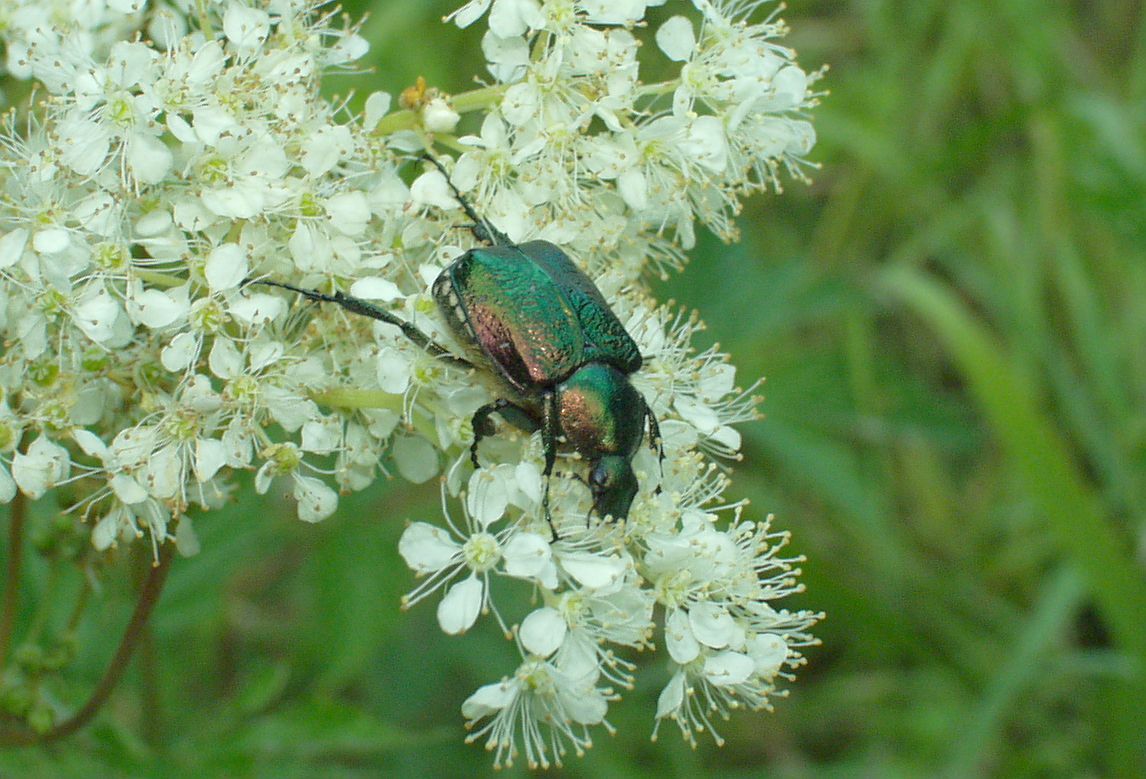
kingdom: Animalia
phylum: Arthropoda
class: Insecta
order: Coleoptera
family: Scarabaeidae
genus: Gnorimus
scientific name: Gnorimus nobilis
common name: Noble chafer
